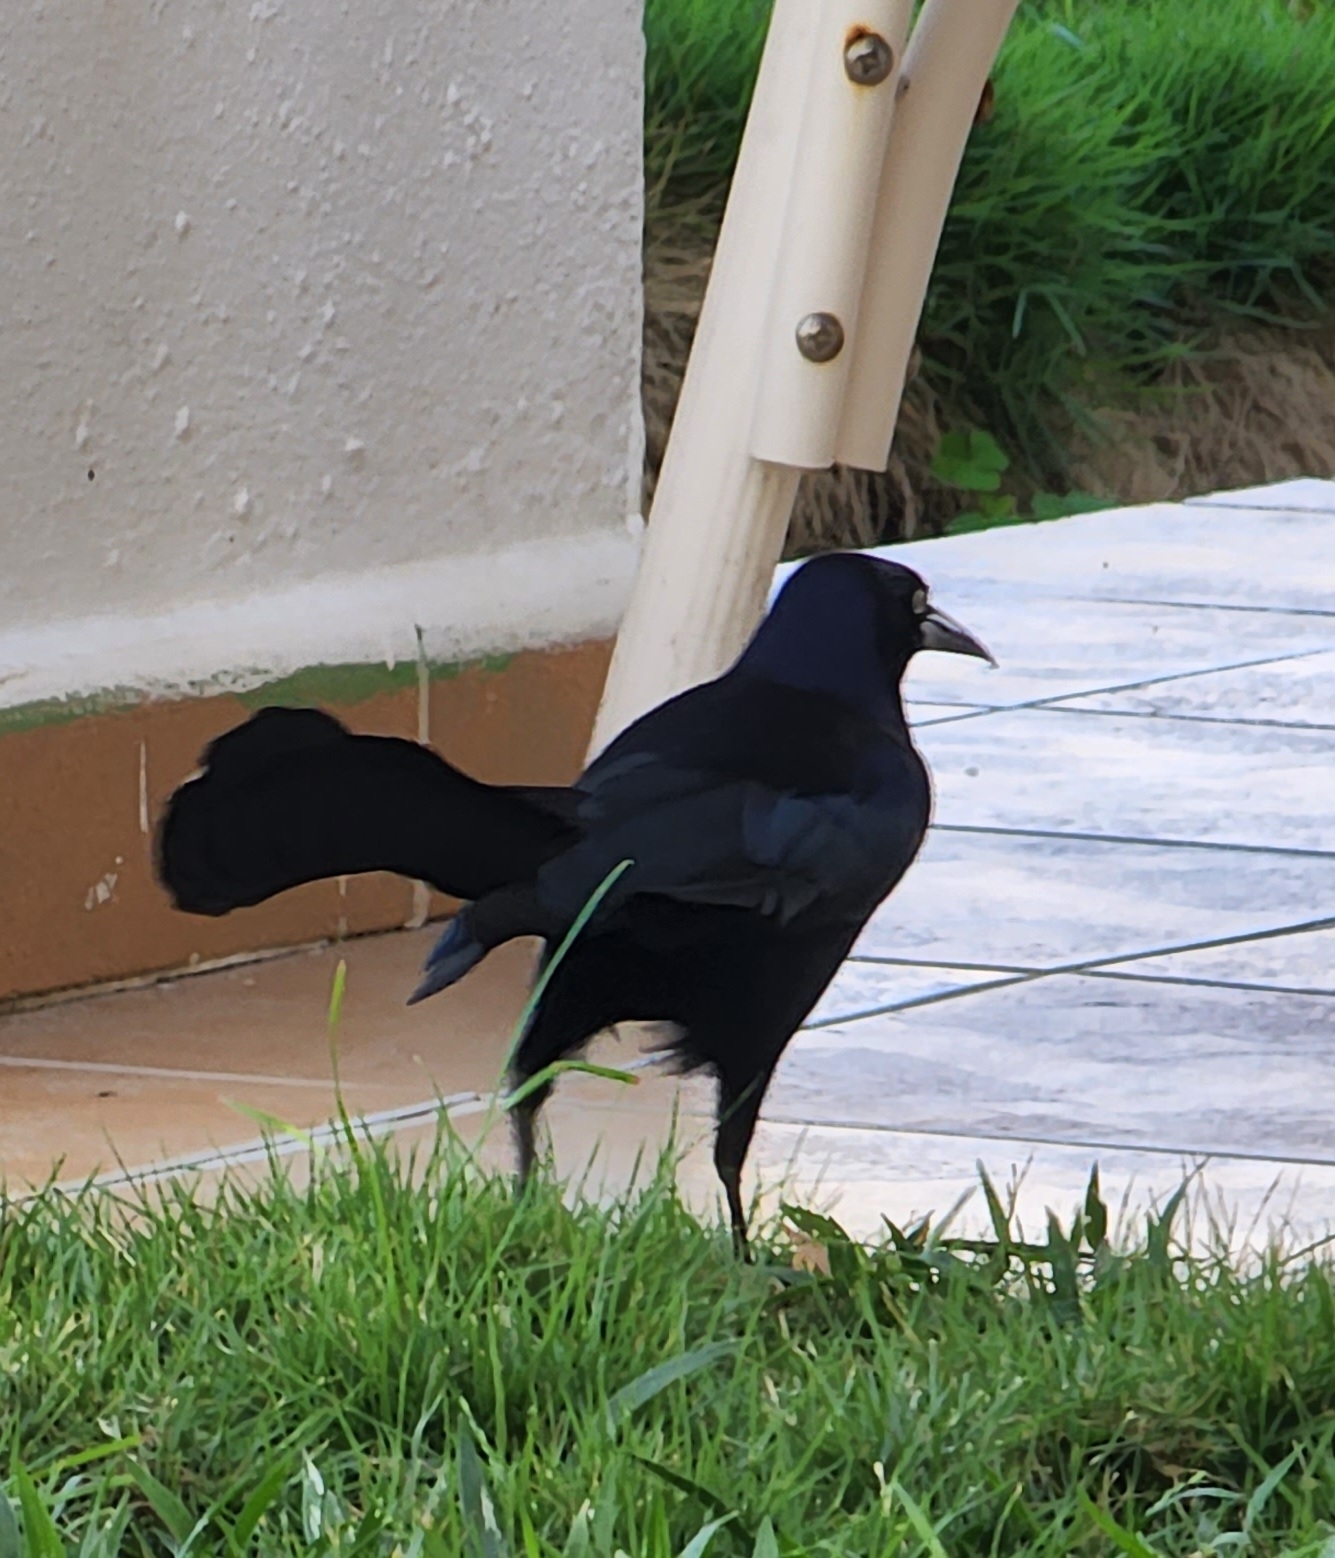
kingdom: Animalia
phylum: Chordata
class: Aves
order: Passeriformes
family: Icteridae
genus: Quiscalus
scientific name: Quiscalus niger
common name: Greater antillean grackle
